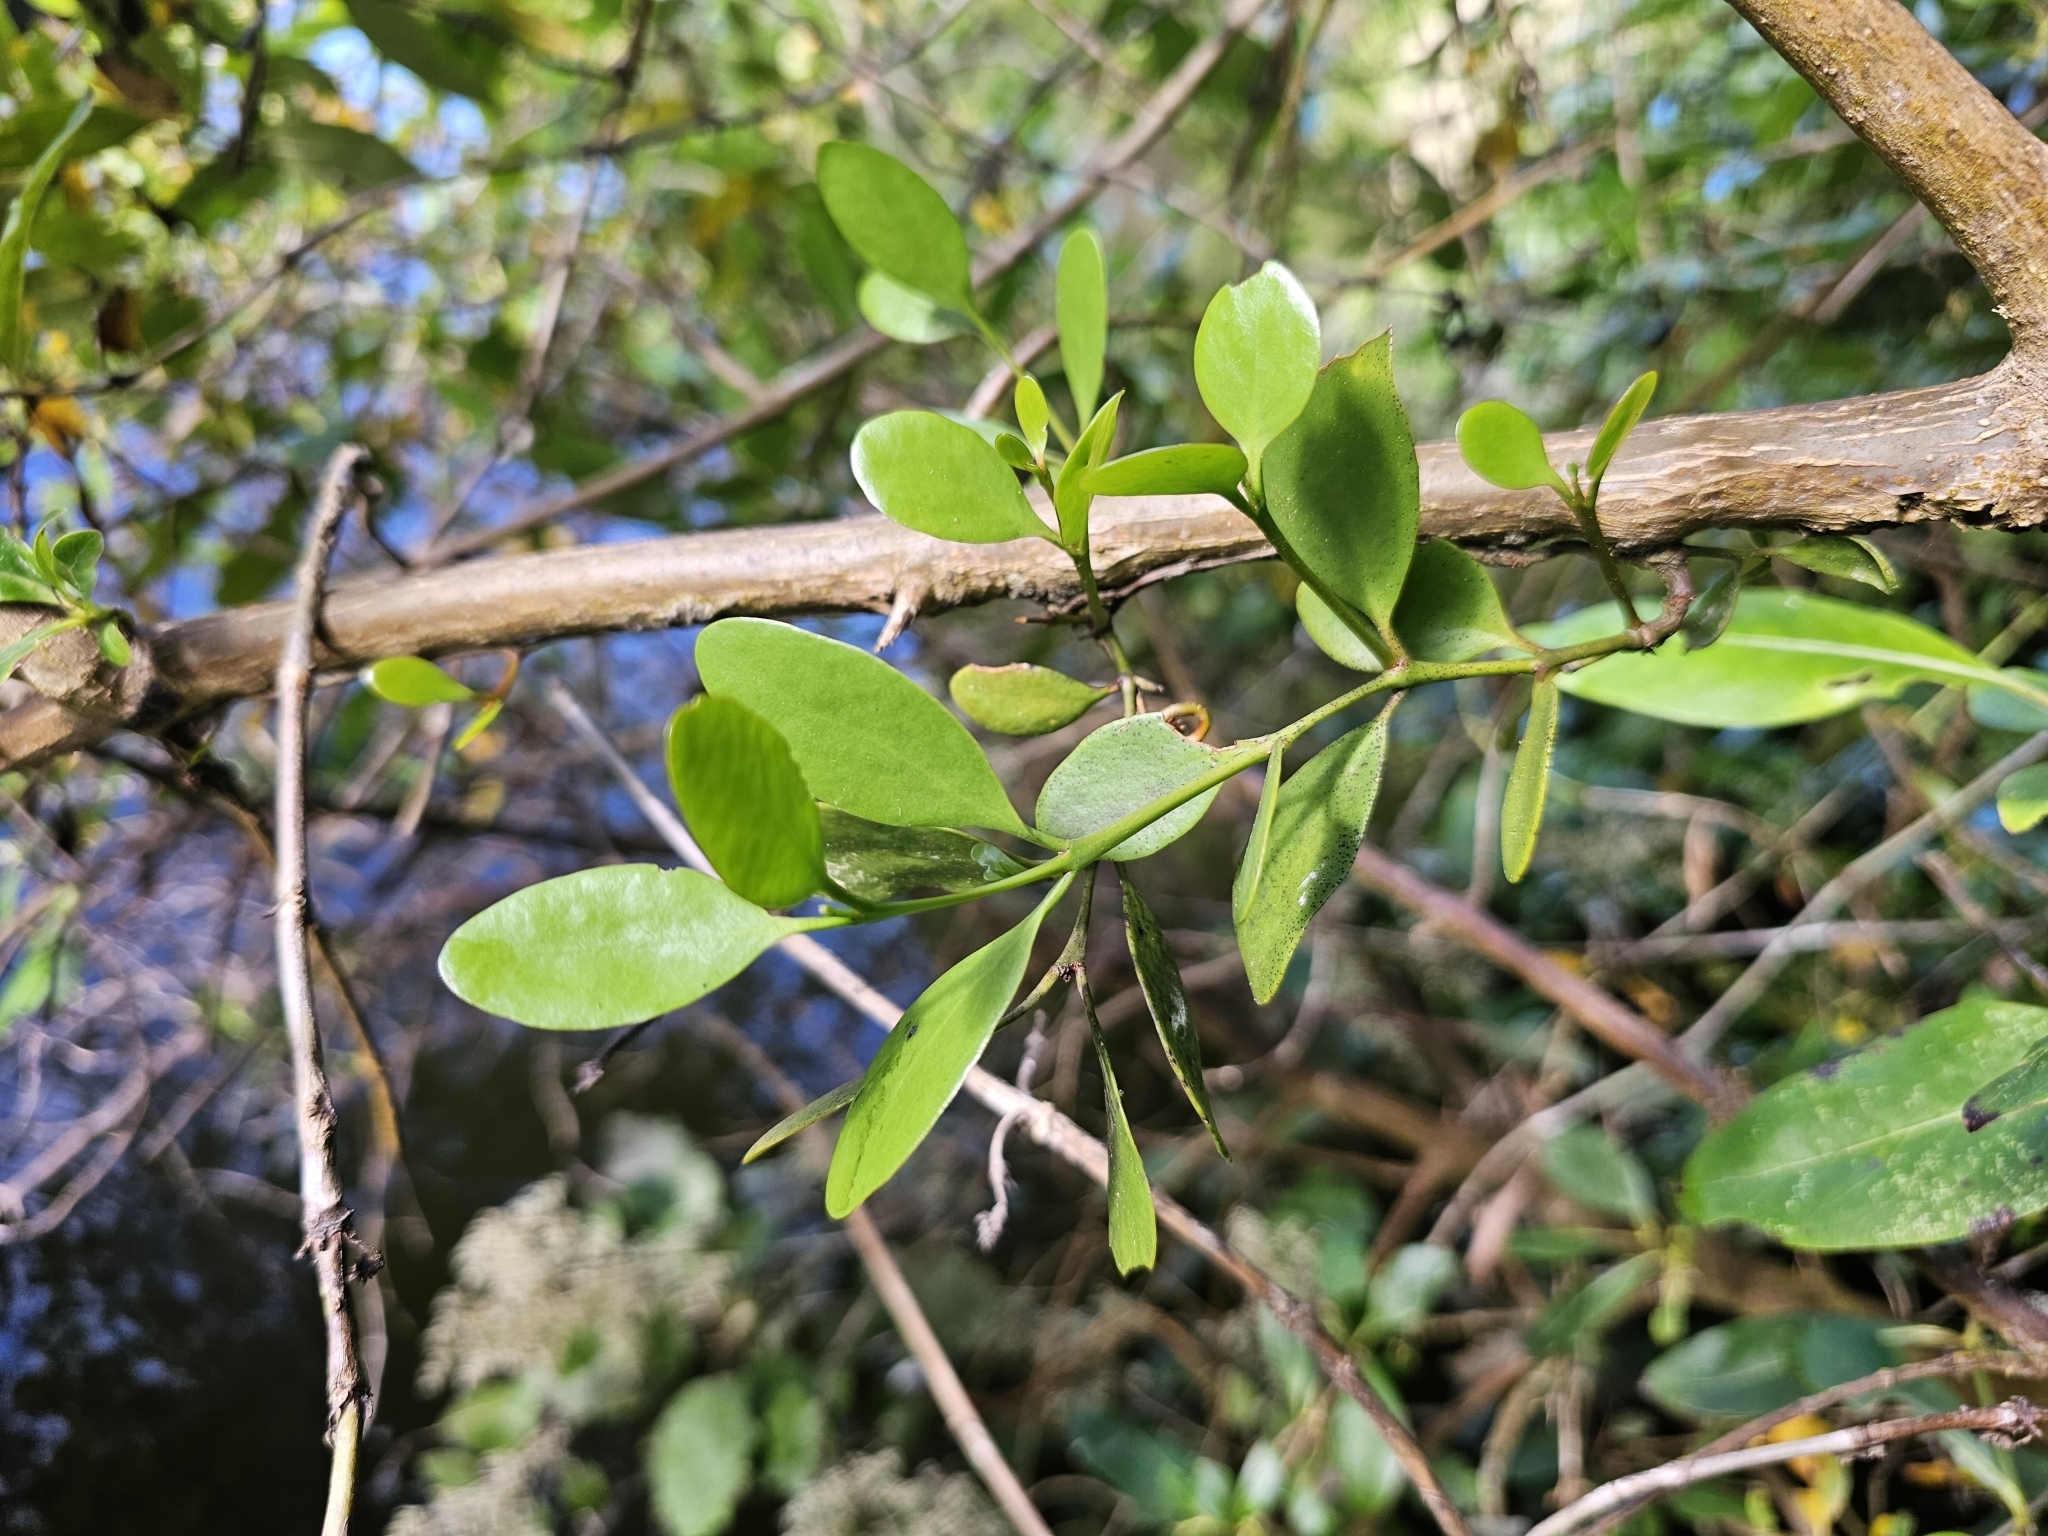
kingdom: Plantae
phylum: Tracheophyta
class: Magnoliopsida
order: Santalales
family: Loranthaceae
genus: Ileostylus
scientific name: Ileostylus micranthus
